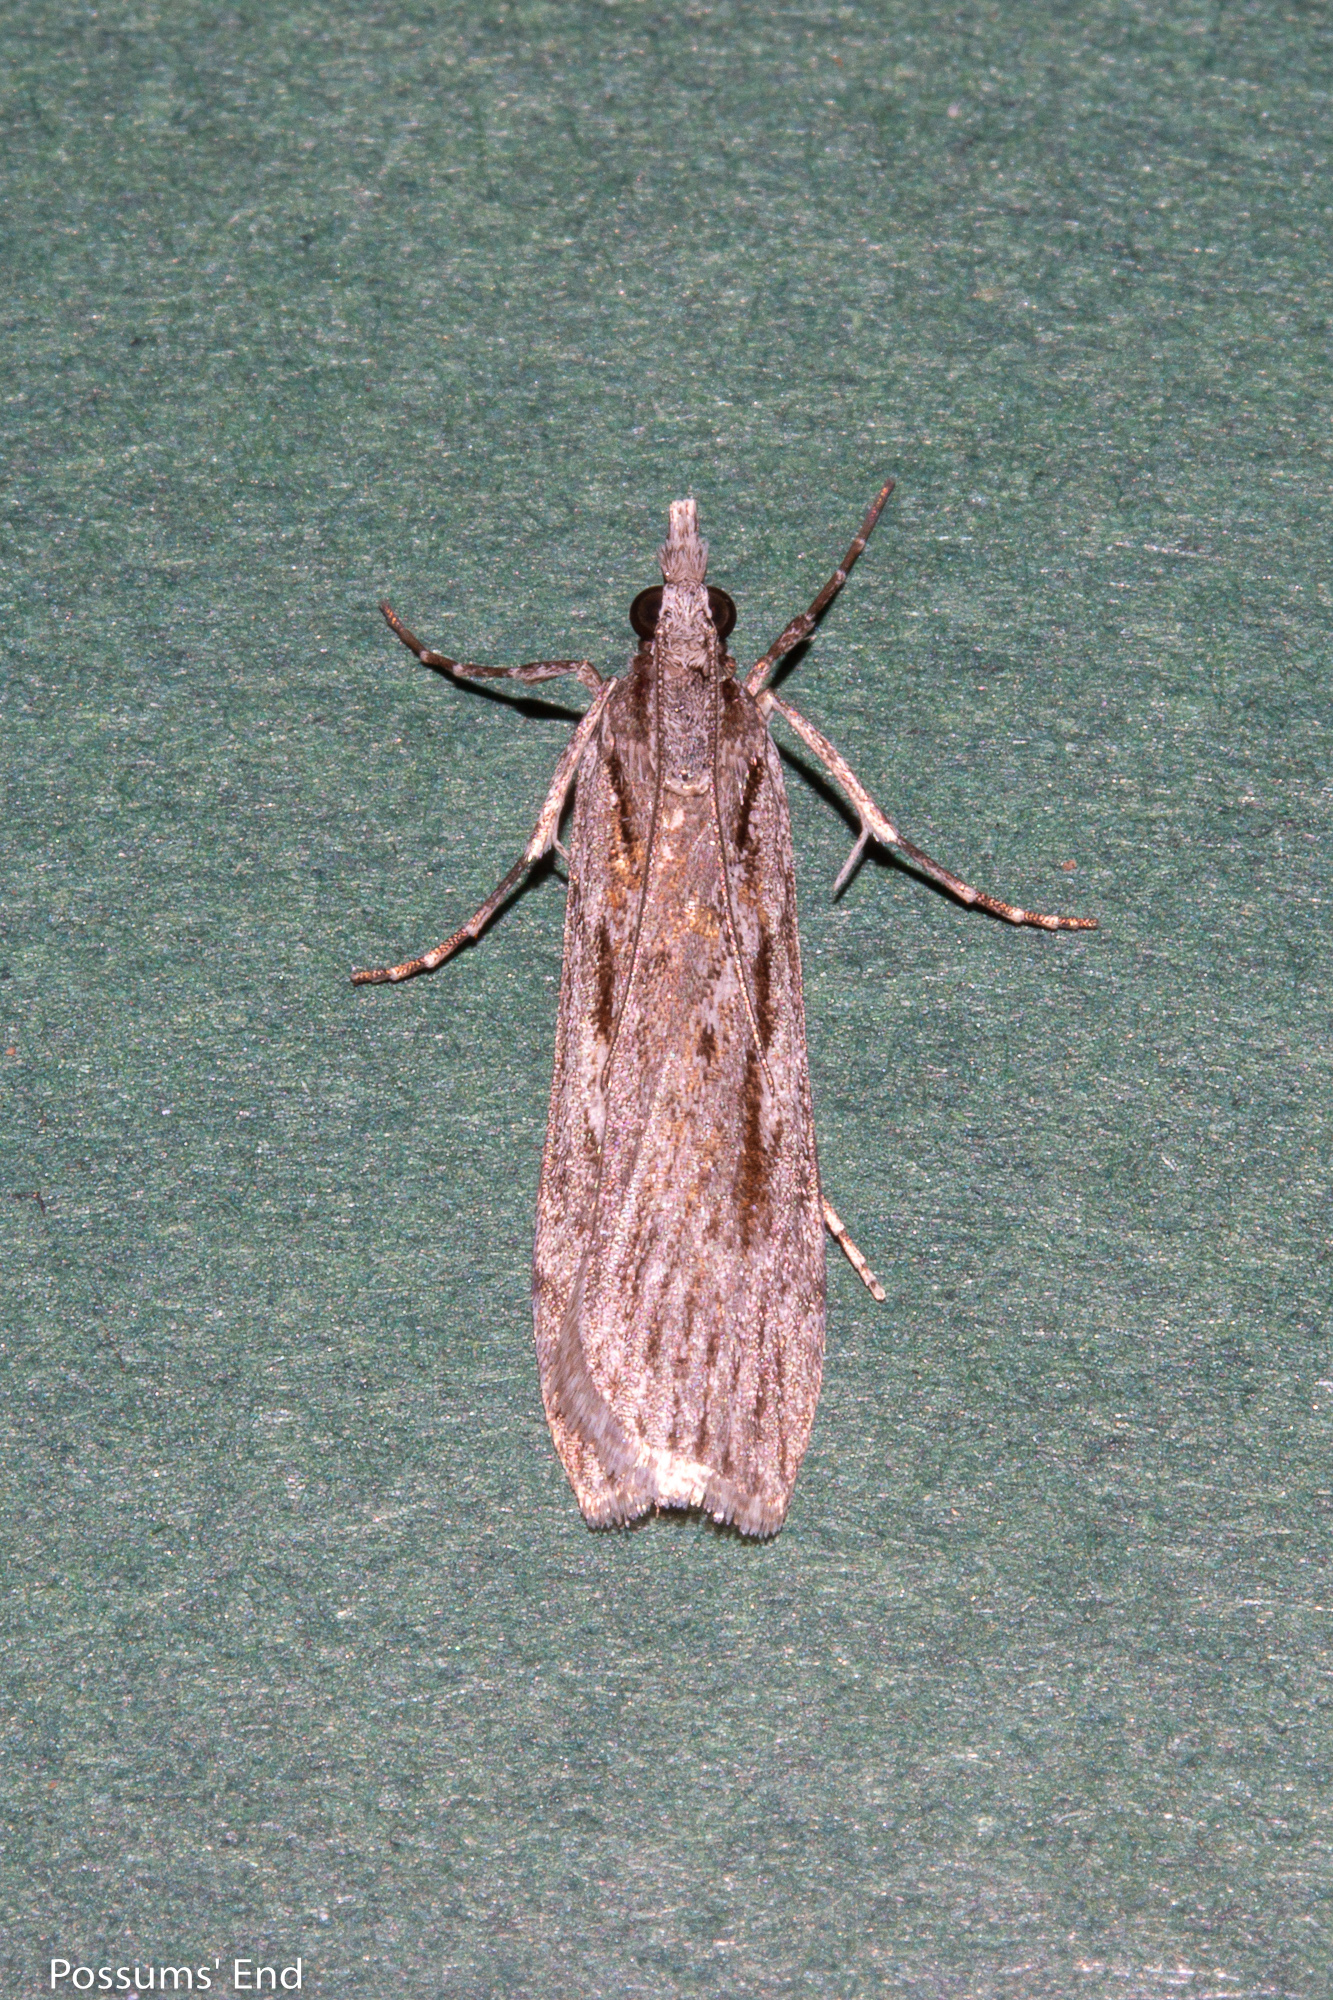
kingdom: Animalia
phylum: Arthropoda
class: Insecta
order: Lepidoptera
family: Crambidae
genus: Scoparia
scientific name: Scoparia indistinctalis
